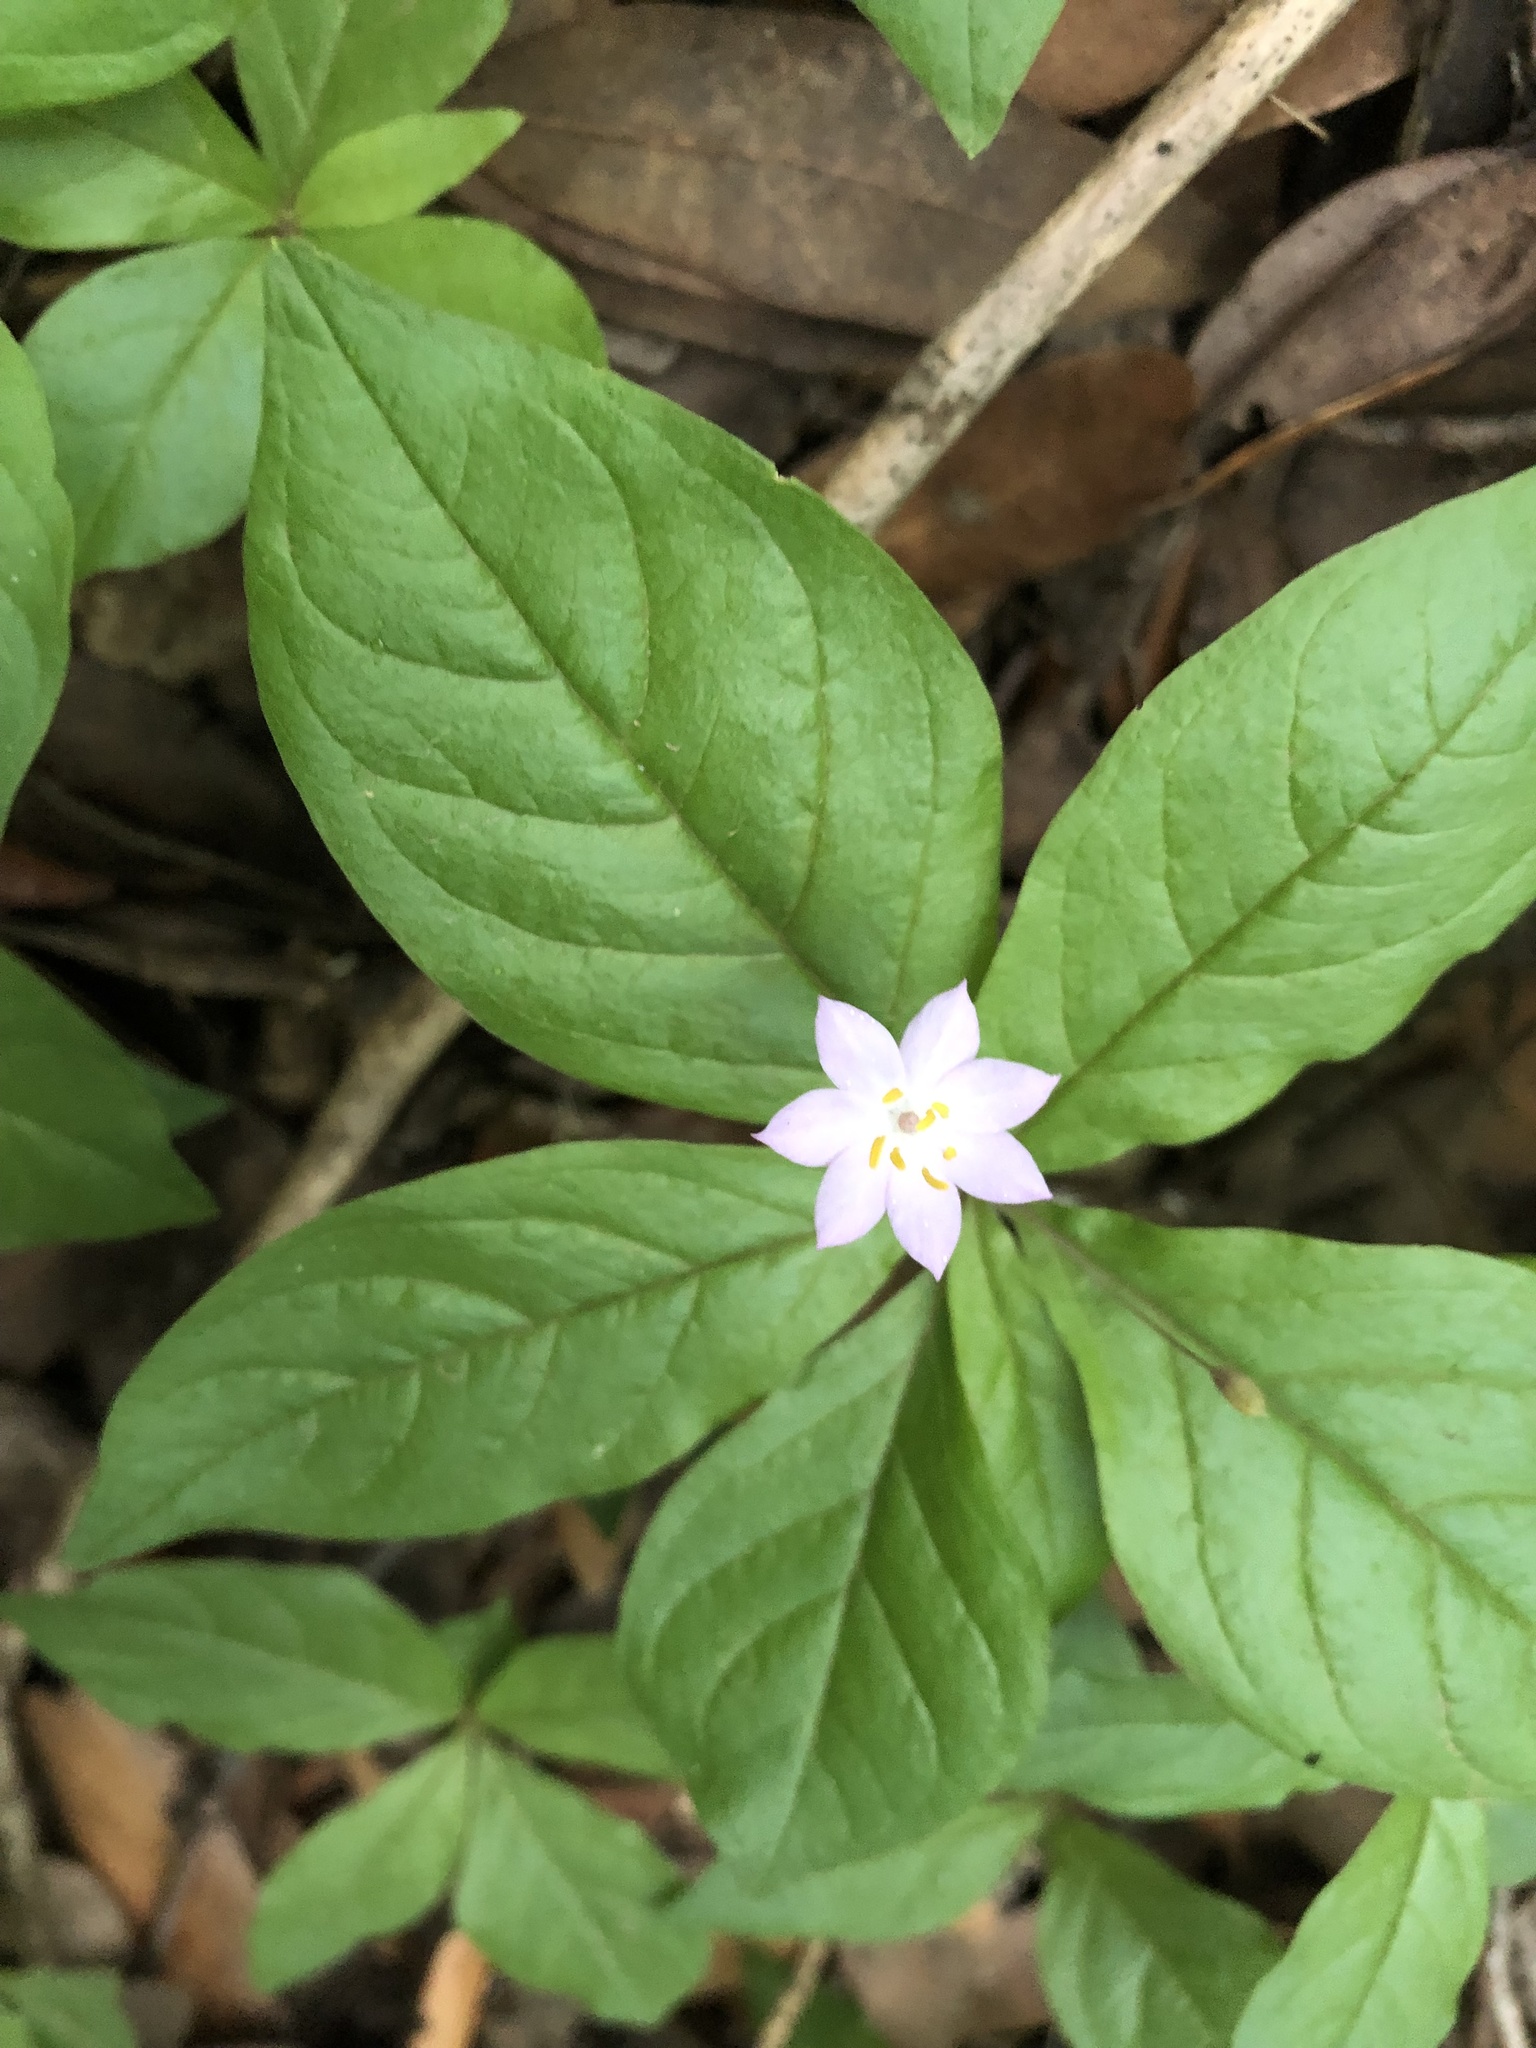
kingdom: Plantae
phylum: Tracheophyta
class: Magnoliopsida
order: Ericales
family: Primulaceae
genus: Lysimachia
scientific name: Lysimachia latifolia
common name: Pacific starflower
